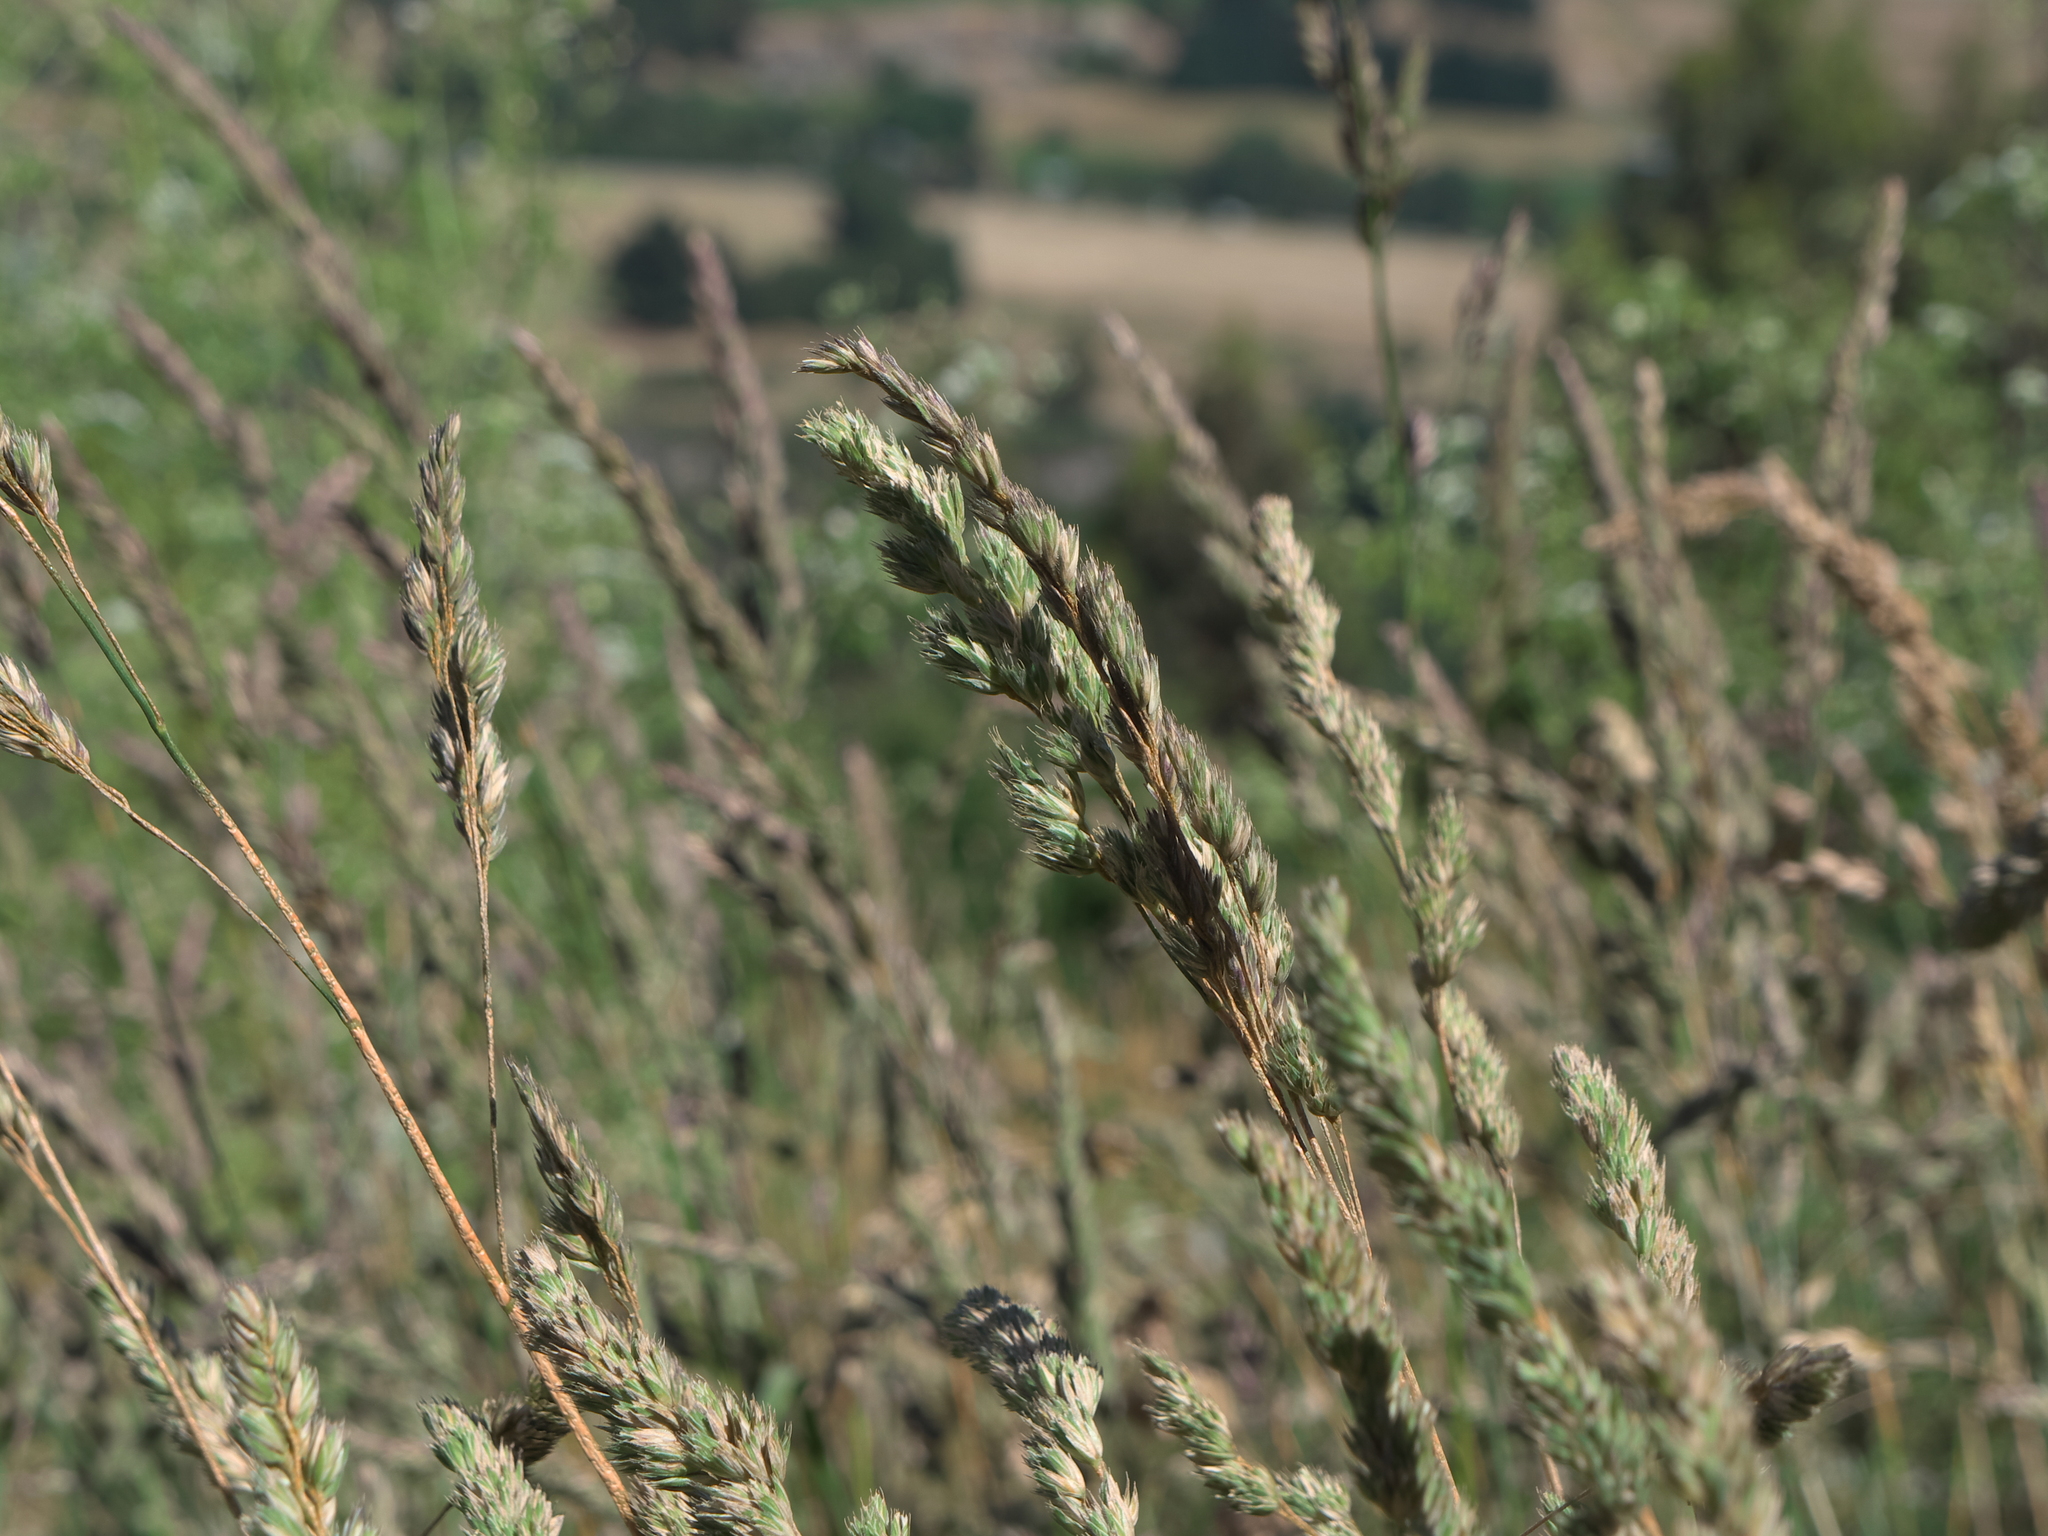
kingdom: Plantae
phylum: Tracheophyta
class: Liliopsida
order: Poales
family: Poaceae
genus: Dactylis
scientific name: Dactylis glomerata
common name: Orchardgrass
